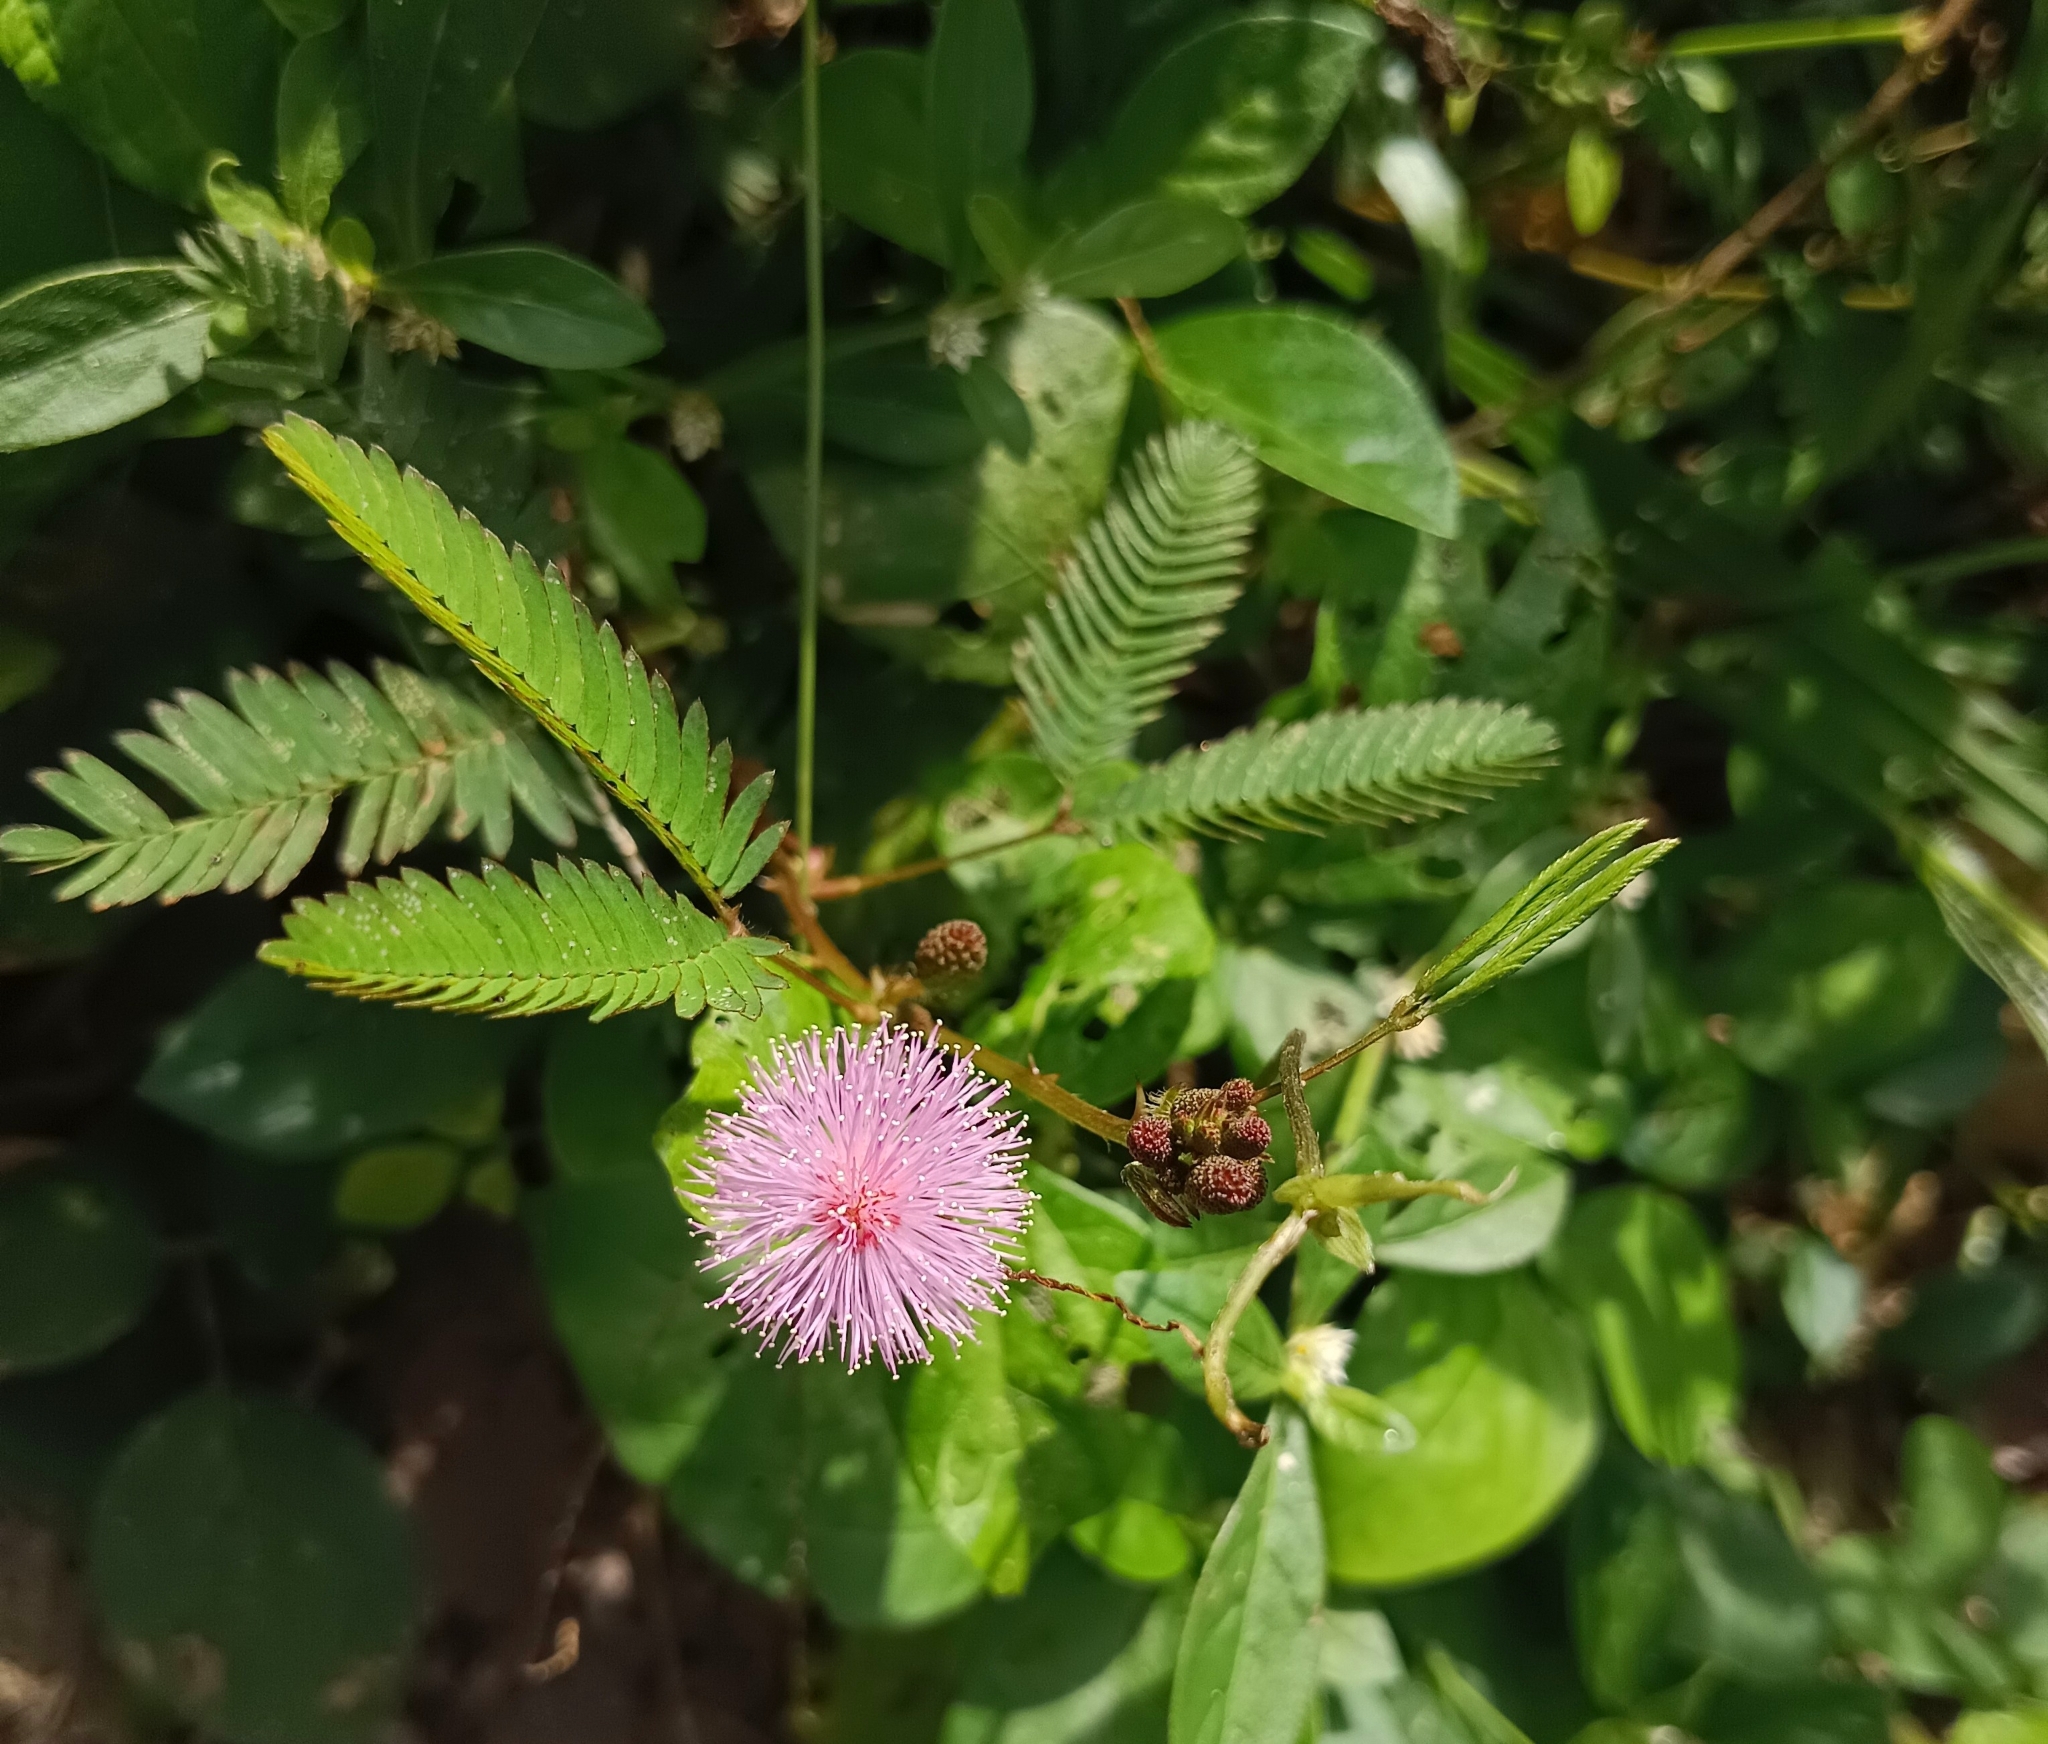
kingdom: Plantae
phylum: Tracheophyta
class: Magnoliopsida
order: Fabales
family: Fabaceae
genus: Mimosa
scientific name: Mimosa pudica
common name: Sensitive plant
